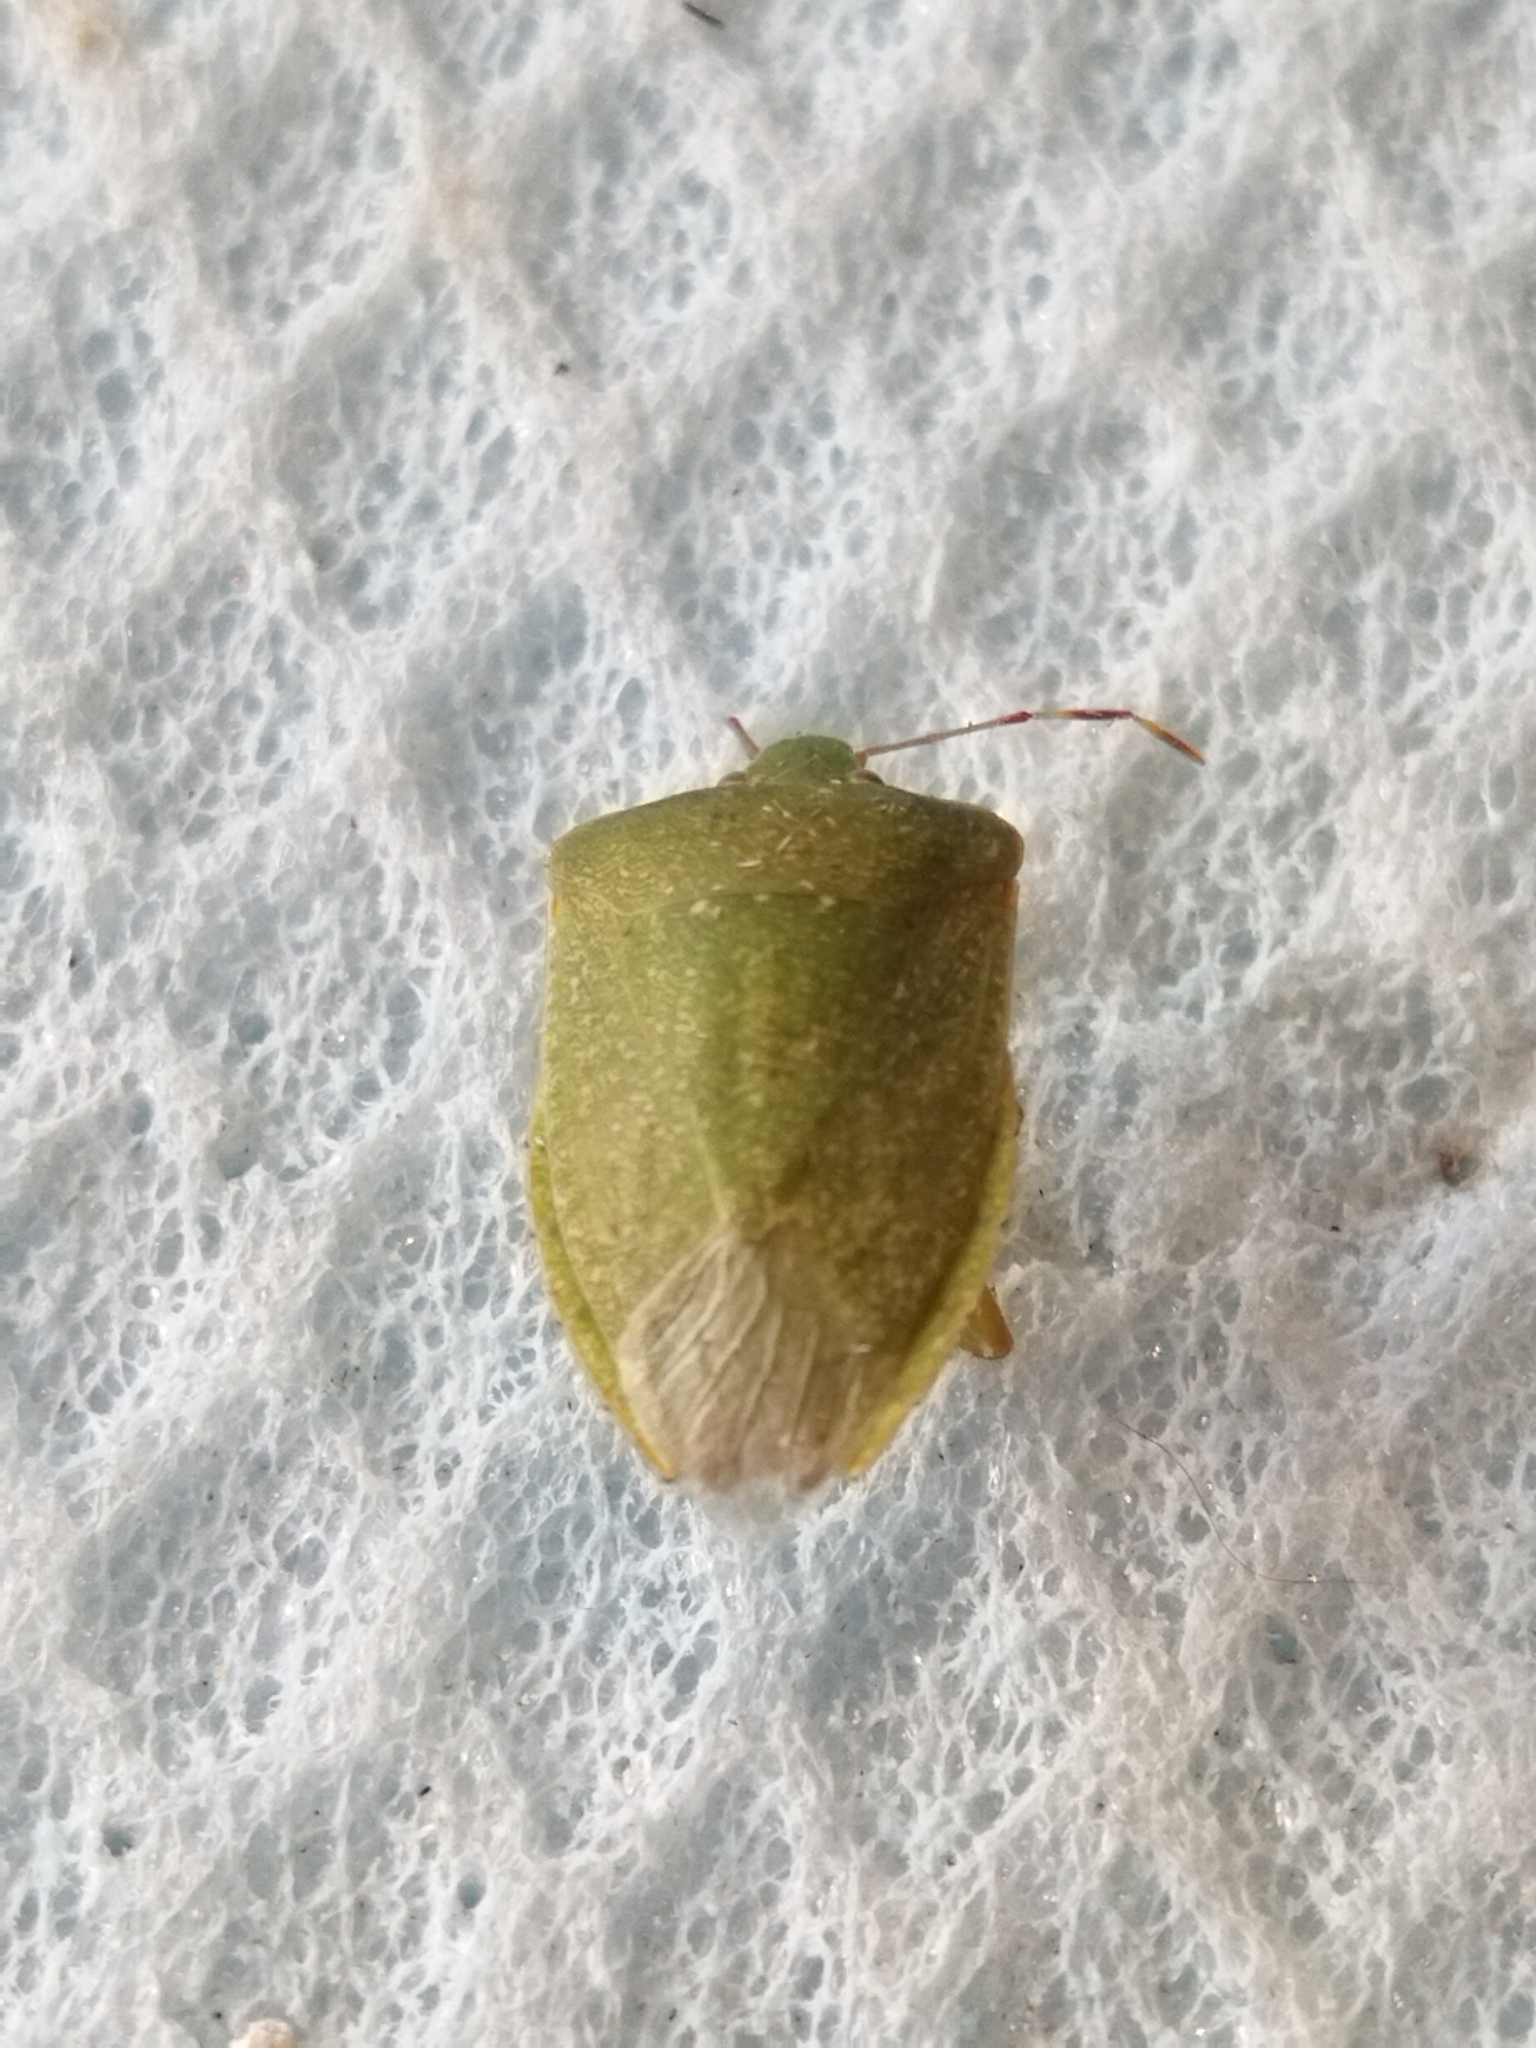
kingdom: Animalia
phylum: Arthropoda
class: Insecta
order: Hemiptera
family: Pentatomidae
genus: Nezara
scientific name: Nezara viridula
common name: Southern green stink bug
